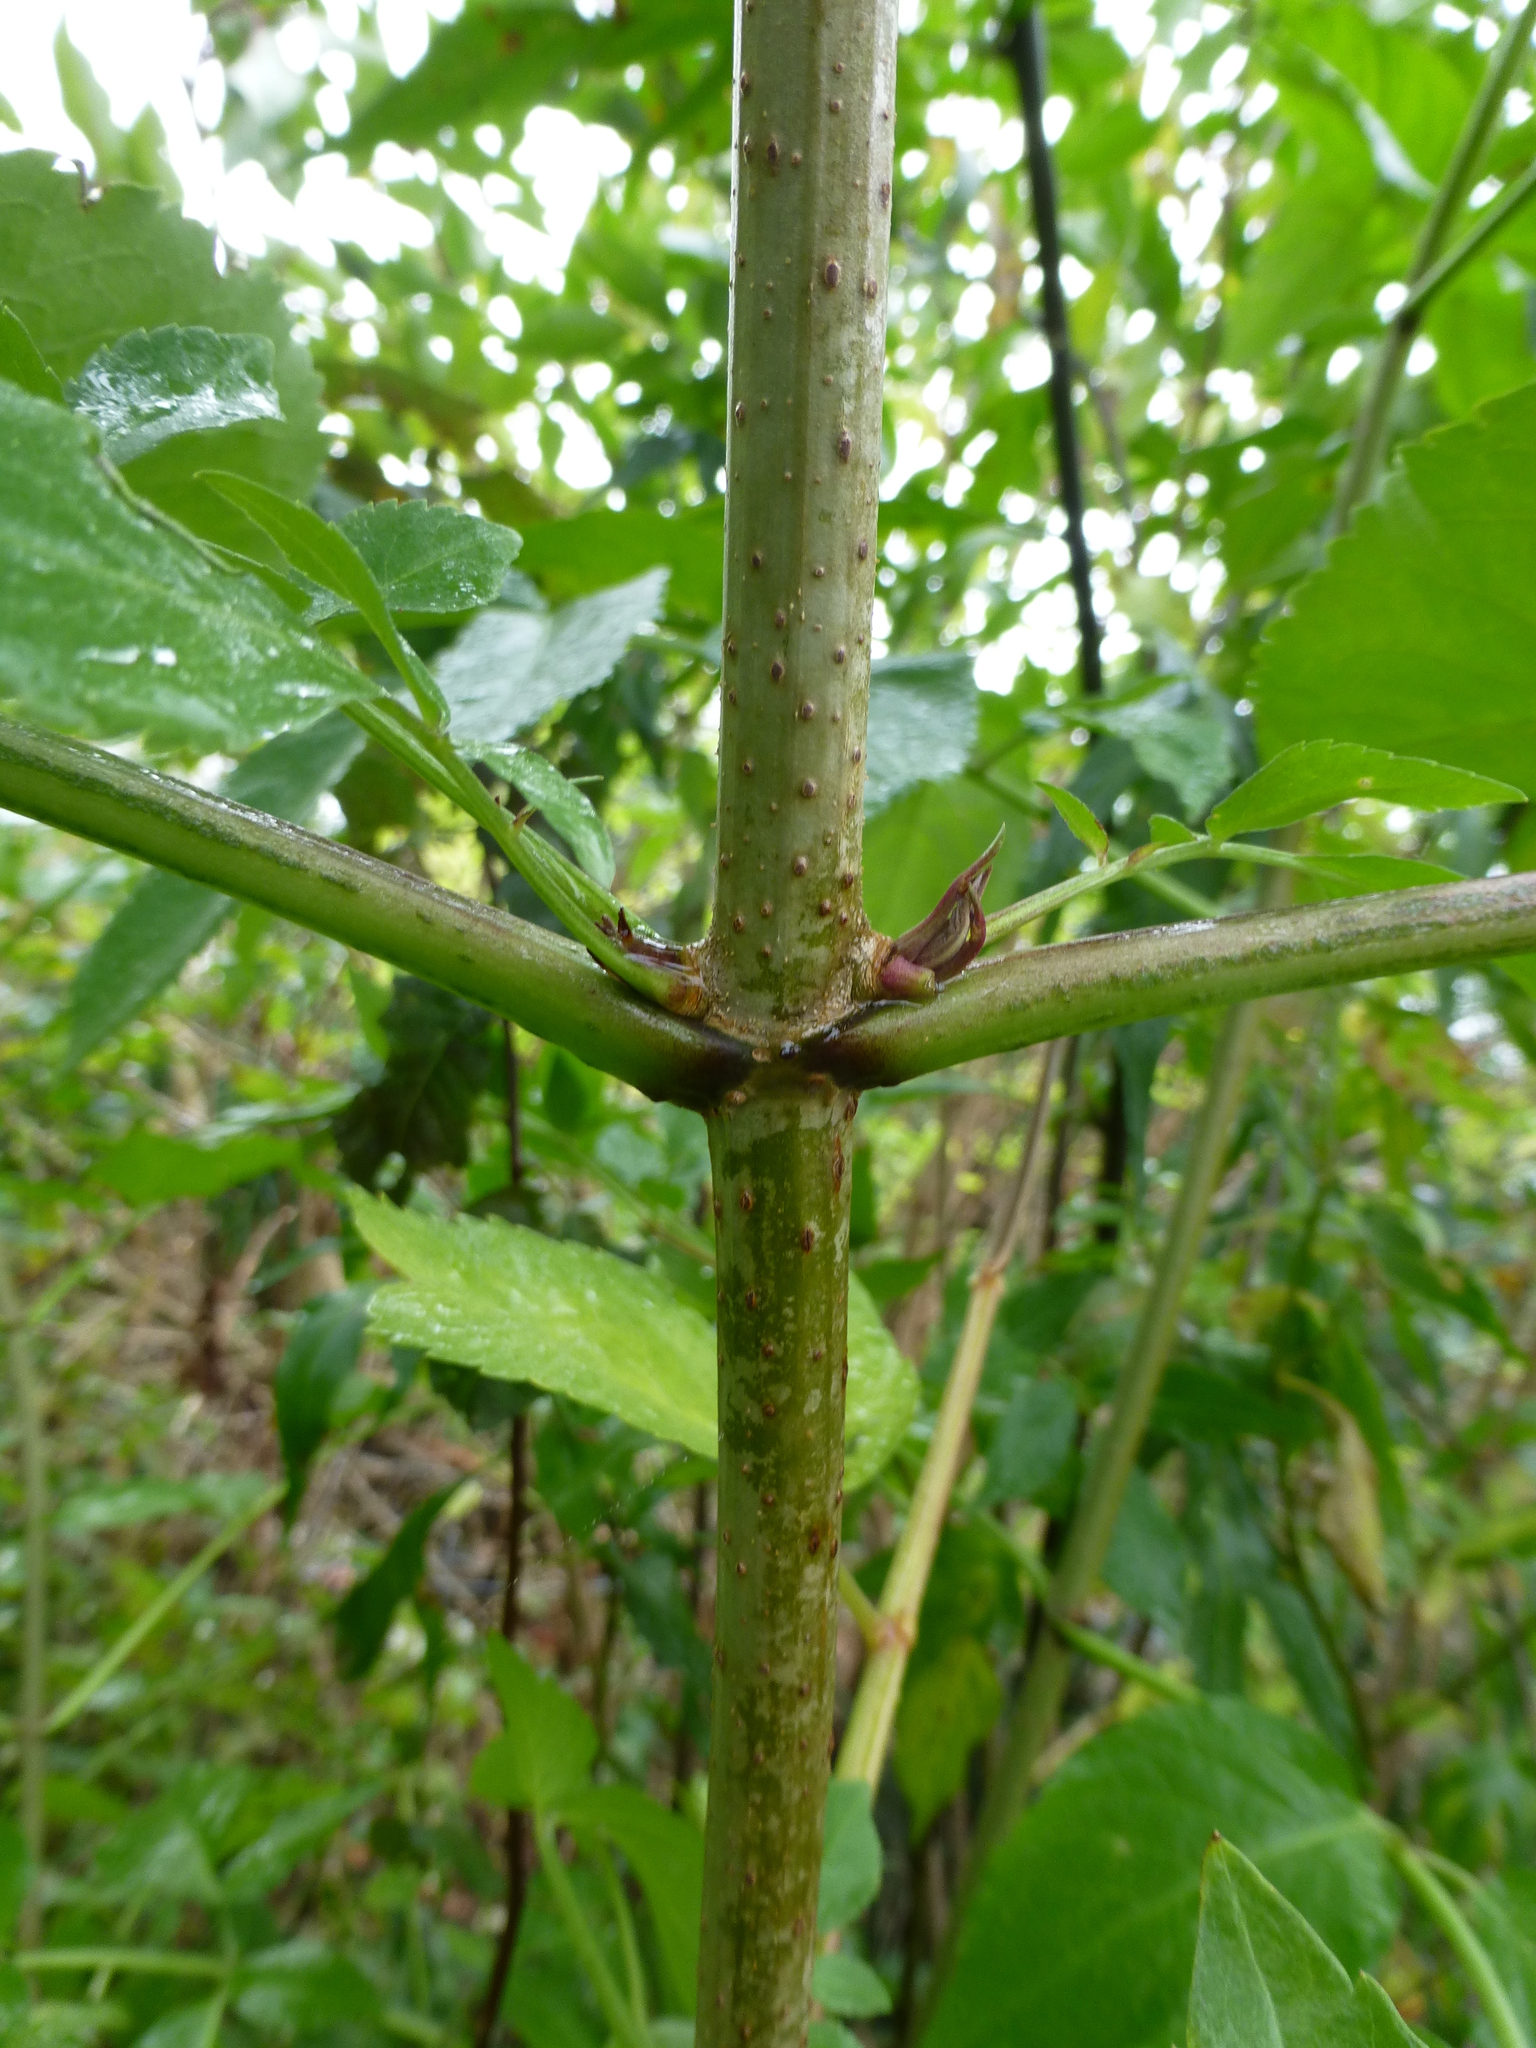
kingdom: Plantae
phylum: Tracheophyta
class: Magnoliopsida
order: Dipsacales
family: Viburnaceae
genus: Sambucus
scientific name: Sambucus nigra
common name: Elder
